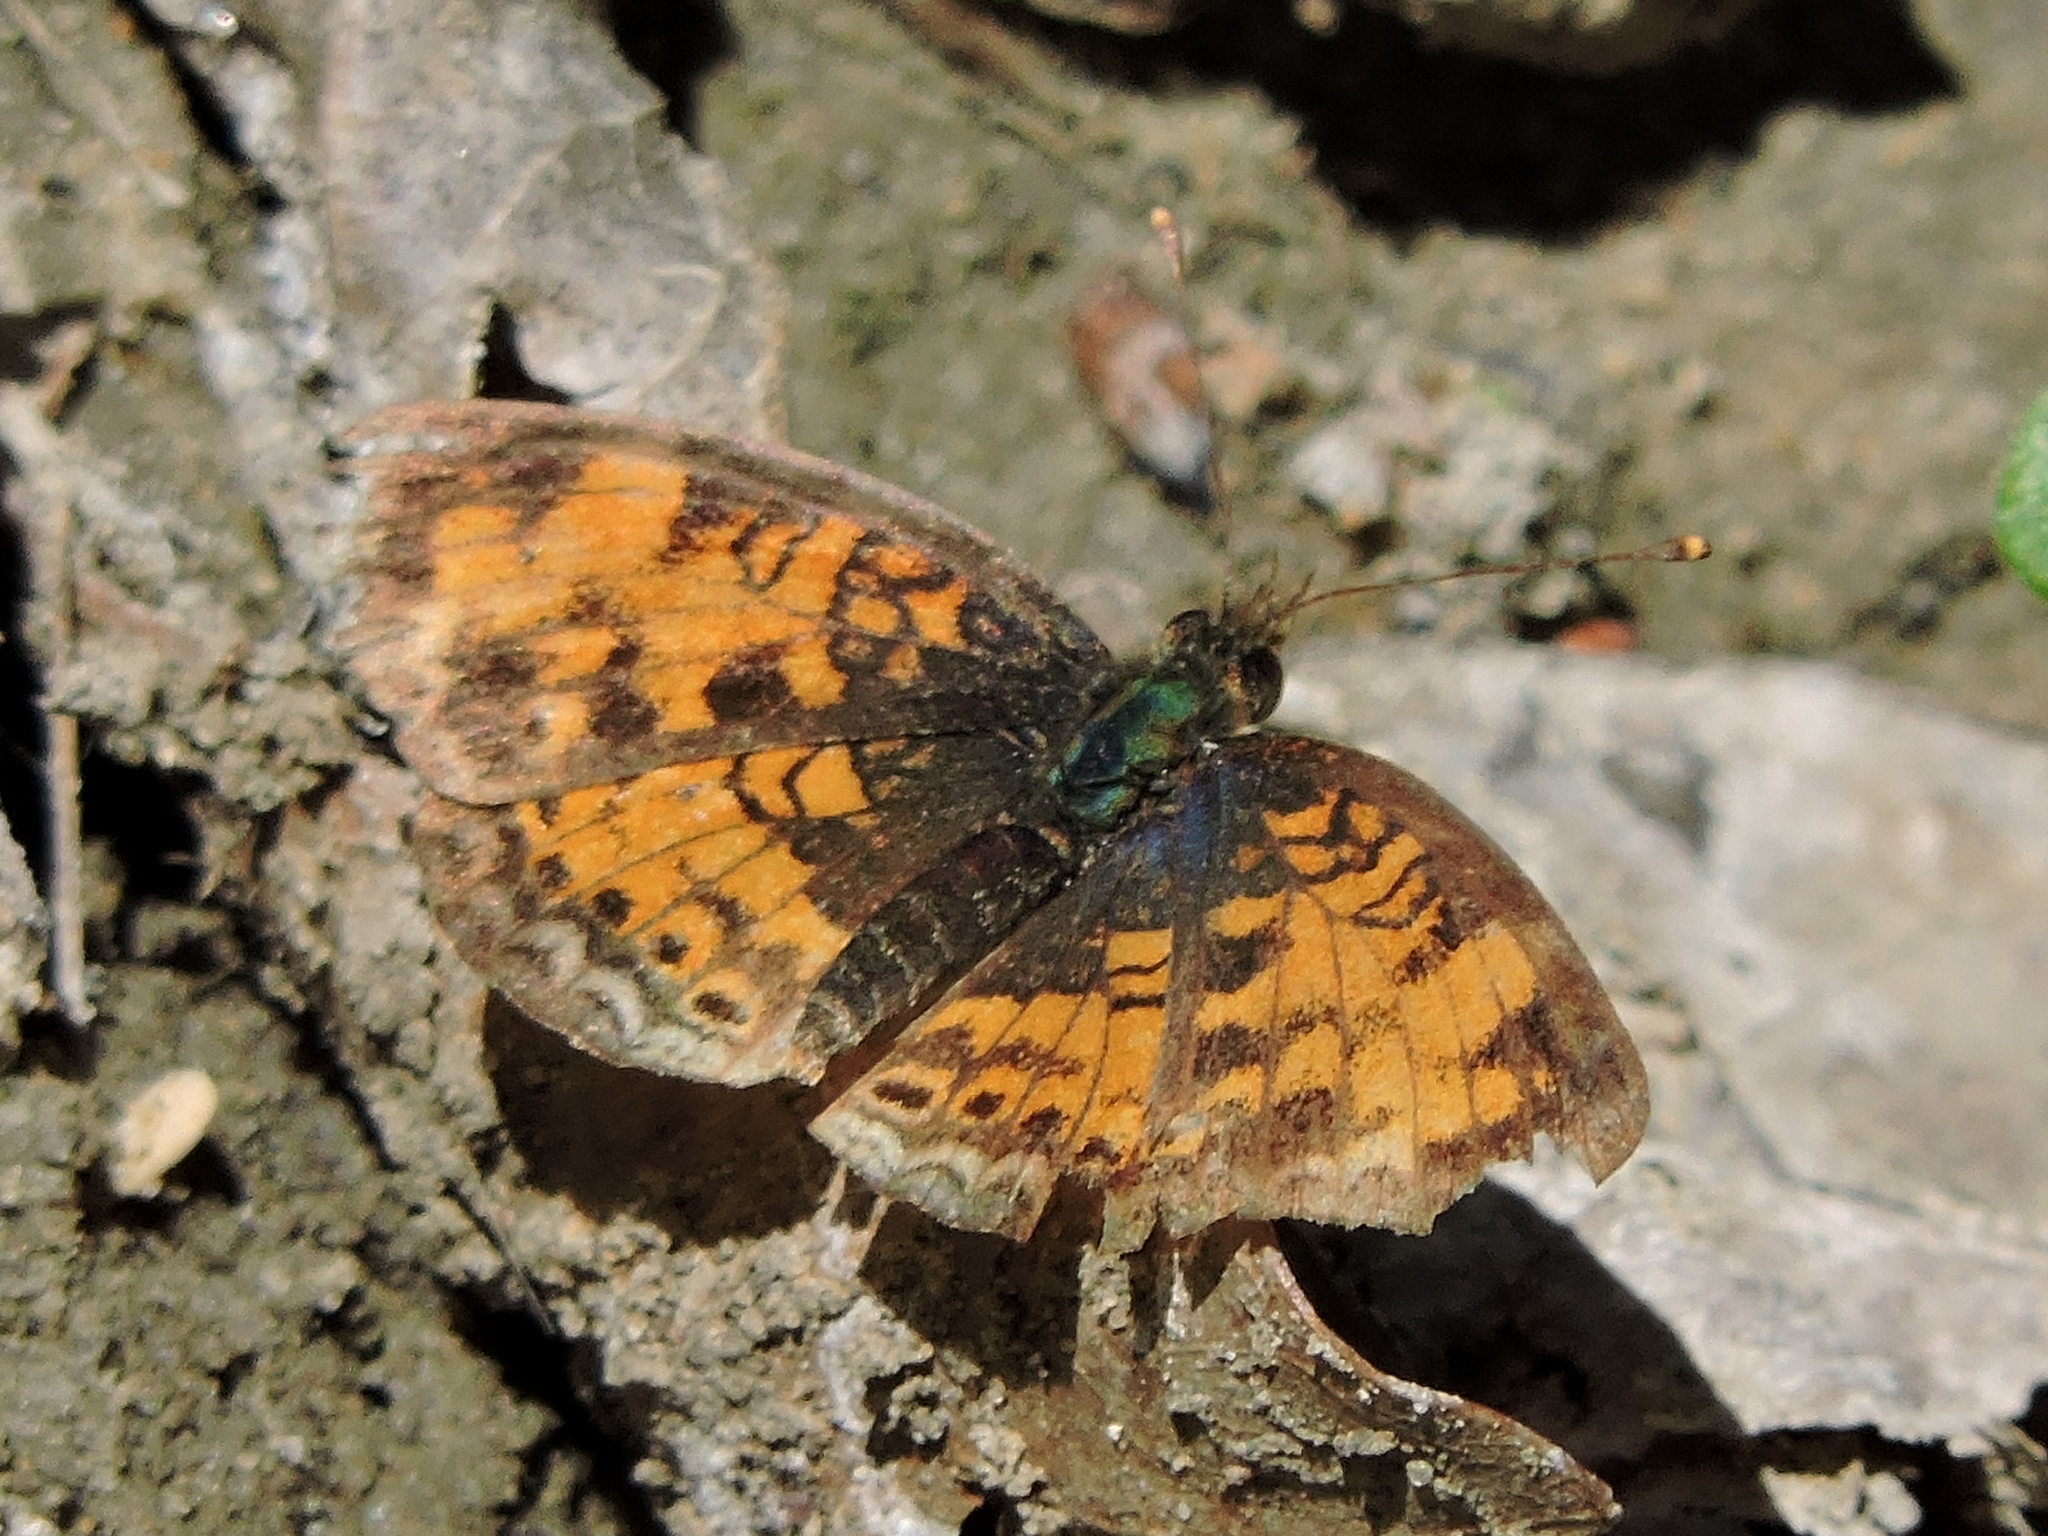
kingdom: Animalia
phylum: Arthropoda
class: Insecta
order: Lepidoptera
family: Nymphalidae
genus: Phyciodes
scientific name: Phyciodes tharos
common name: Pearl crescent
